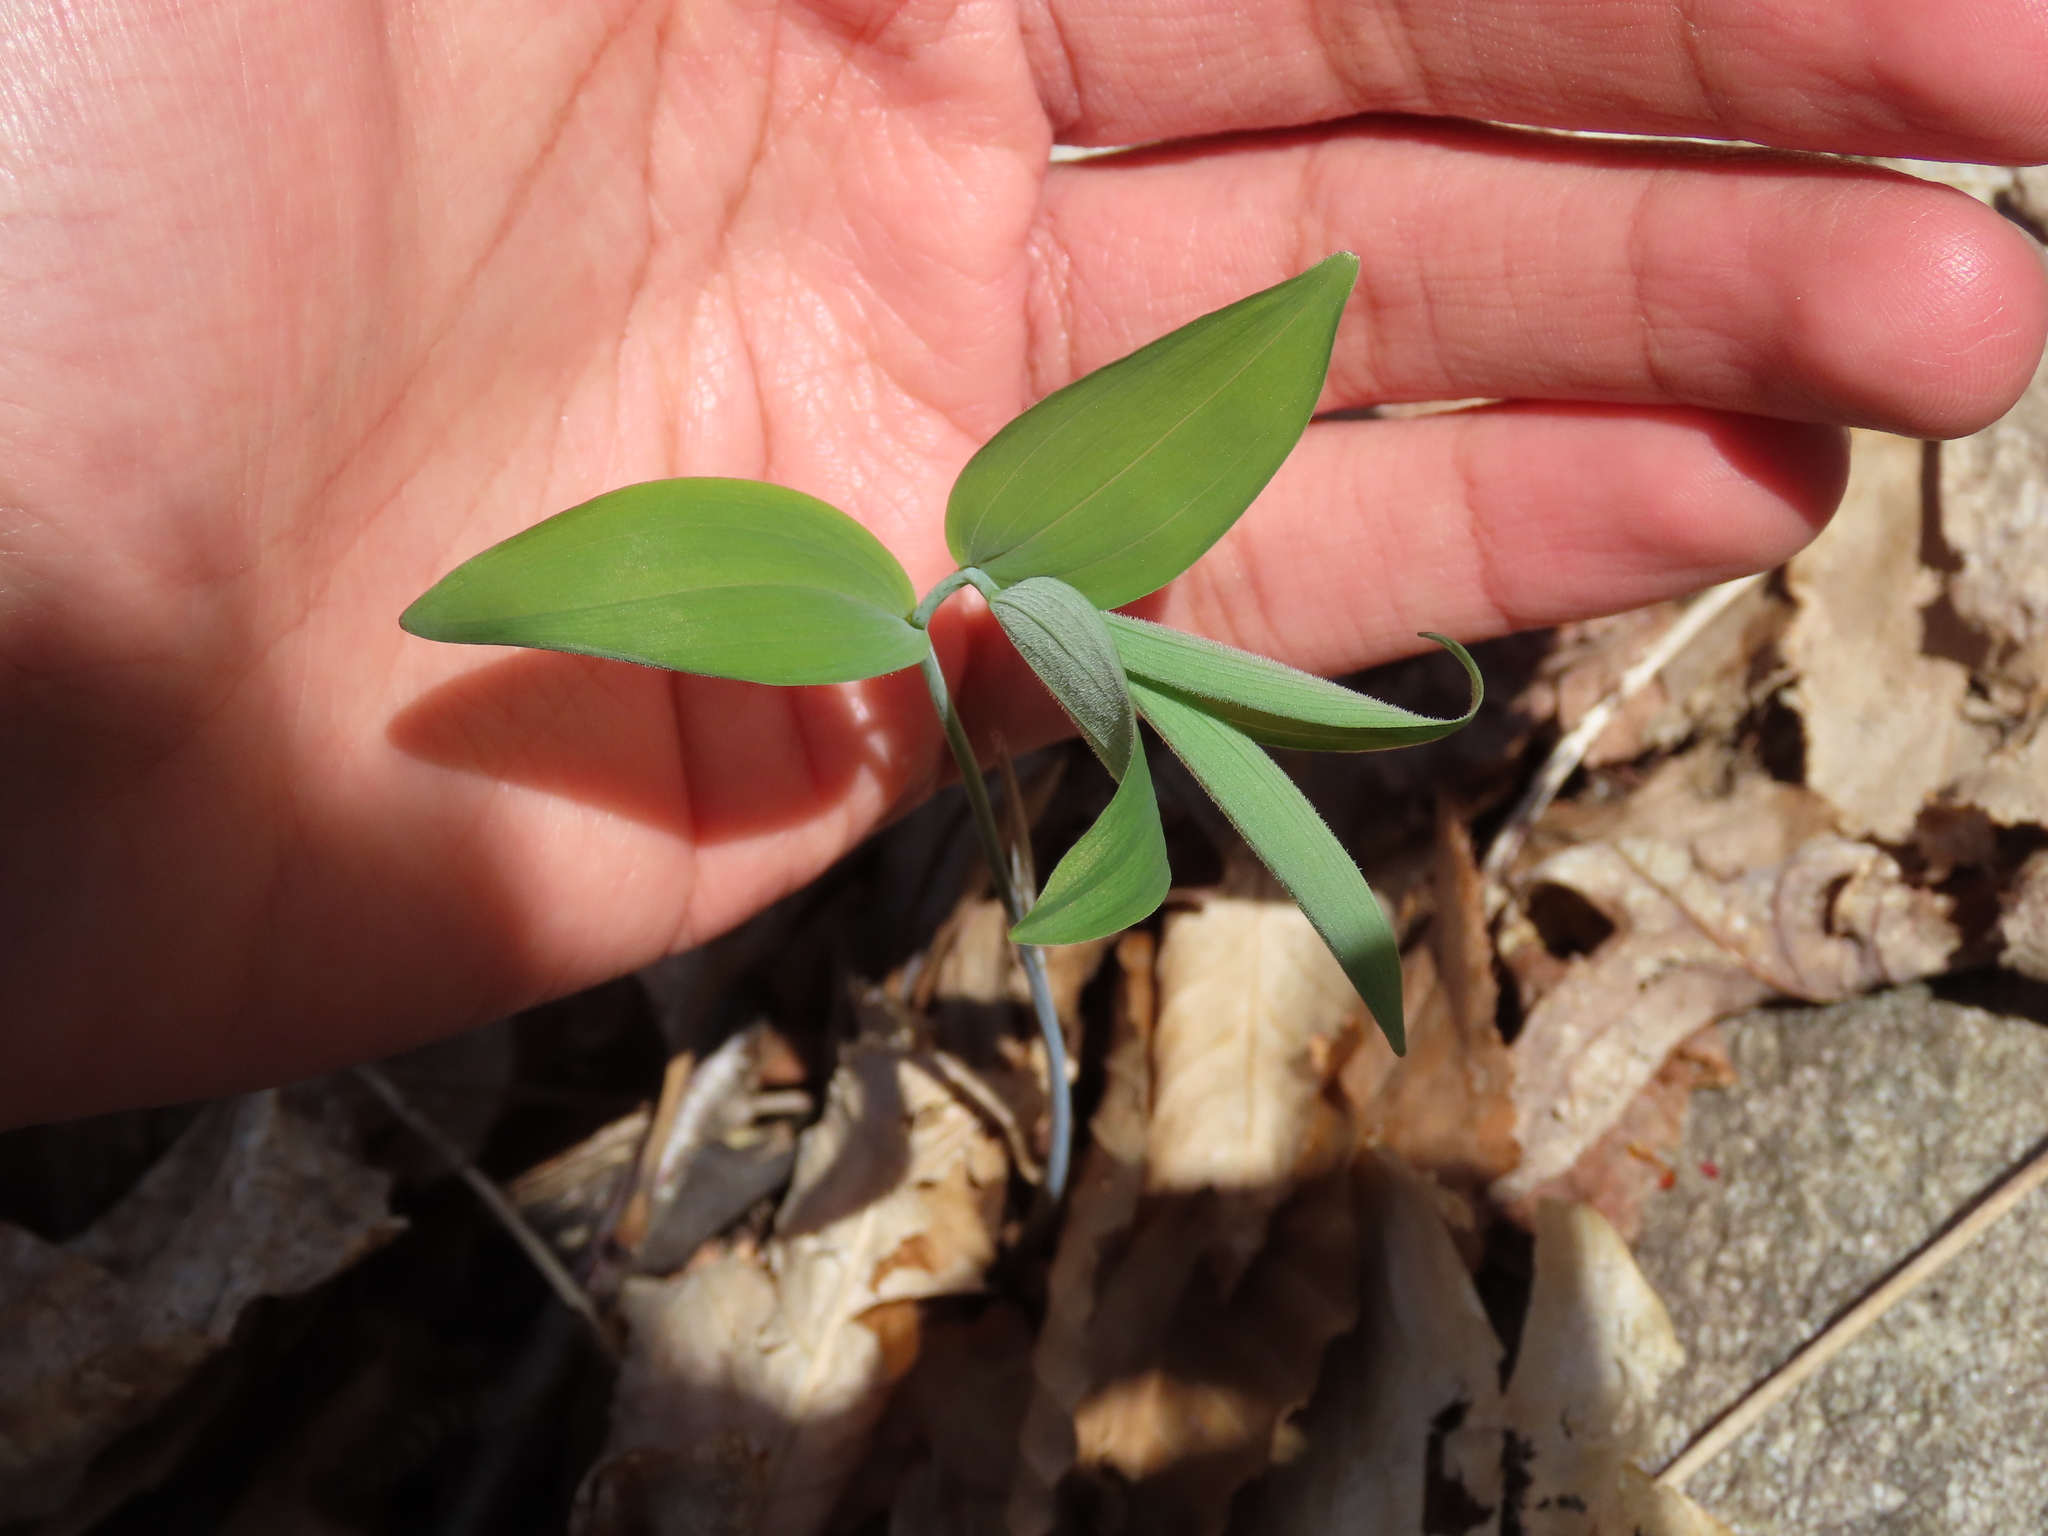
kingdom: Plantae
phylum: Tracheophyta
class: Liliopsida
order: Asparagales
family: Asparagaceae
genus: Polygonatum
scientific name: Polygonatum pubescens
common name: Downy solomon's seal
